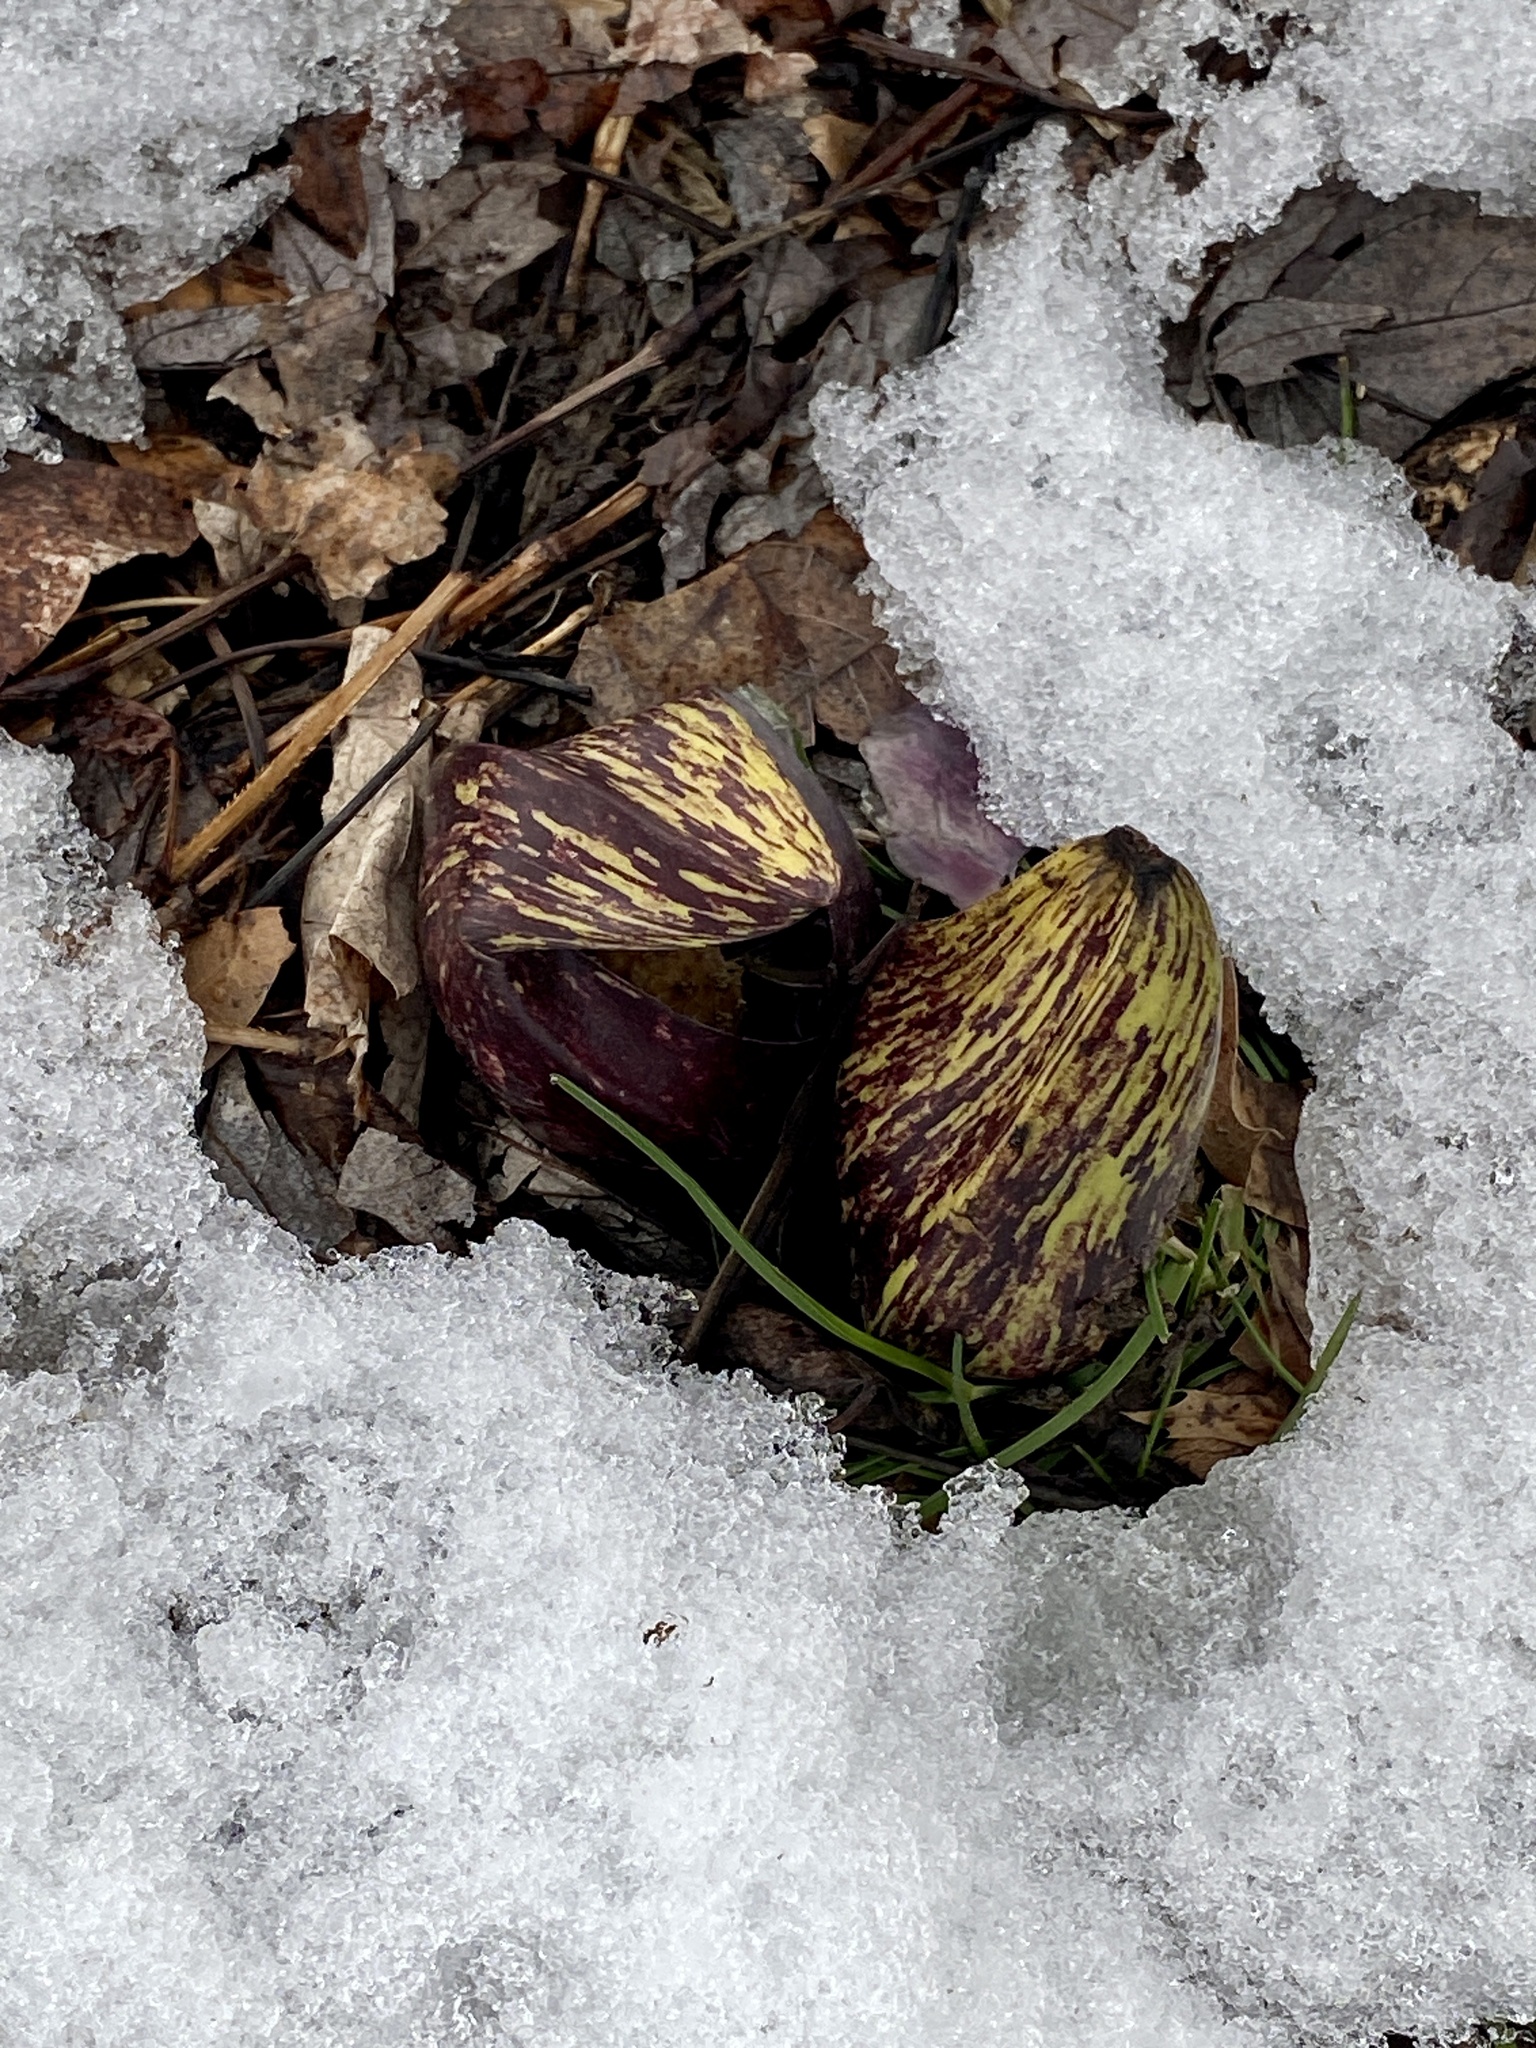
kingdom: Plantae
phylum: Tracheophyta
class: Liliopsida
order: Alismatales
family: Araceae
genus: Symplocarpus
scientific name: Symplocarpus foetidus
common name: Eastern skunk cabbage
